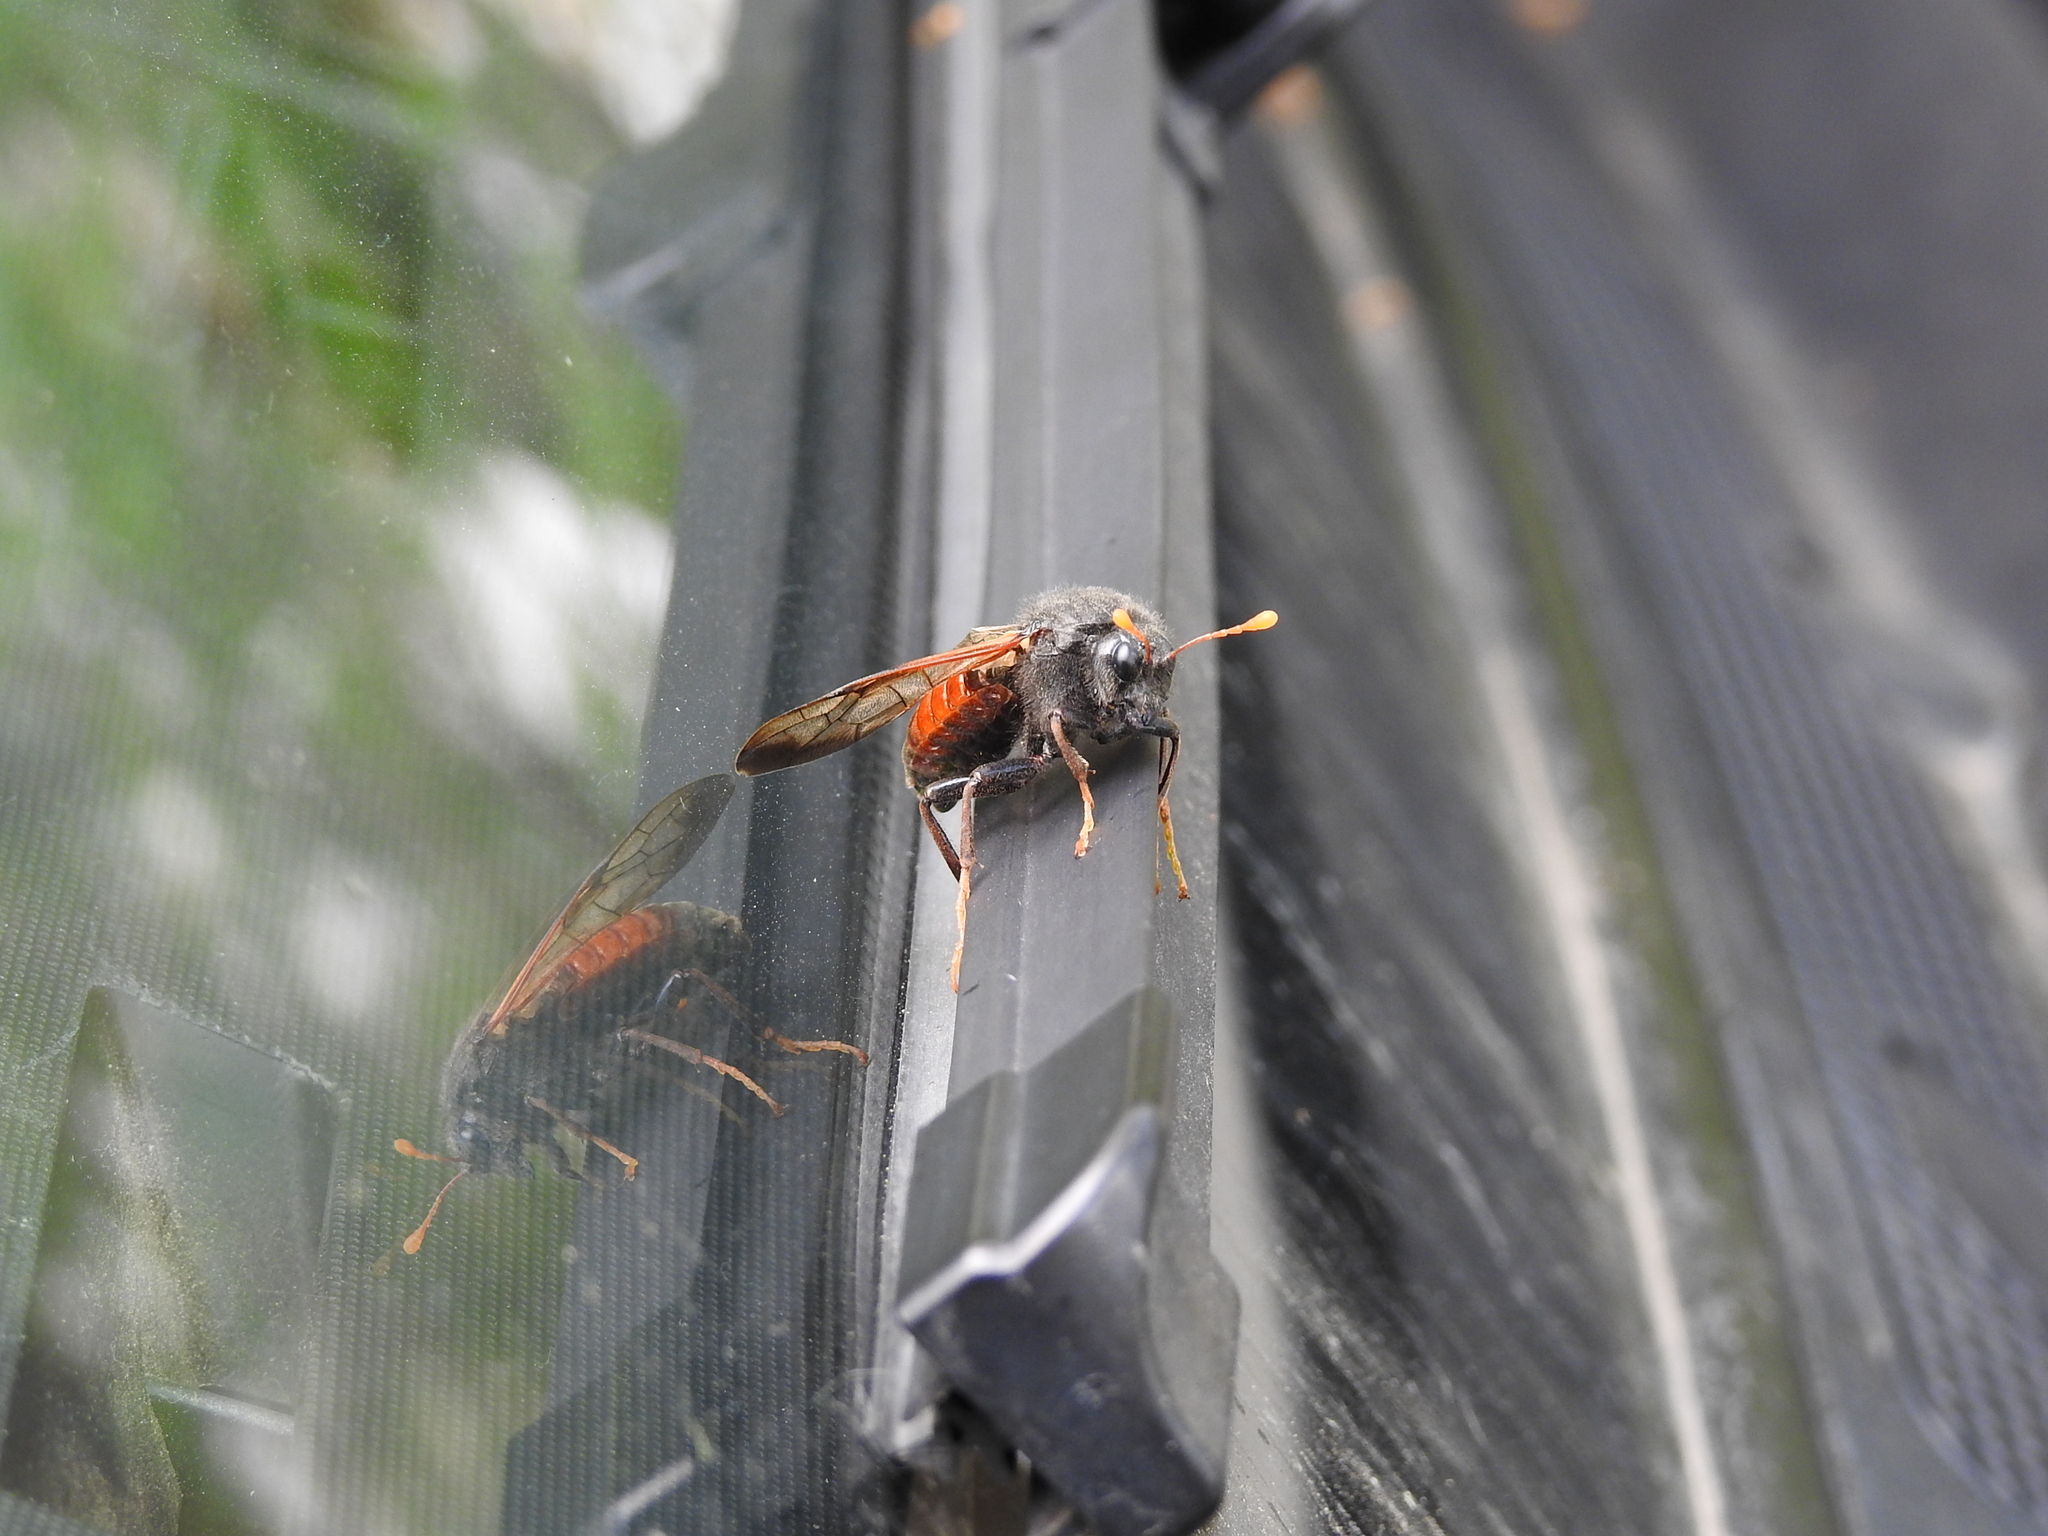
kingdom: Animalia
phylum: Arthropoda
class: Insecta
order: Hymenoptera
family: Cimbicidae
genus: Cimbex
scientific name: Cimbex femoratus
